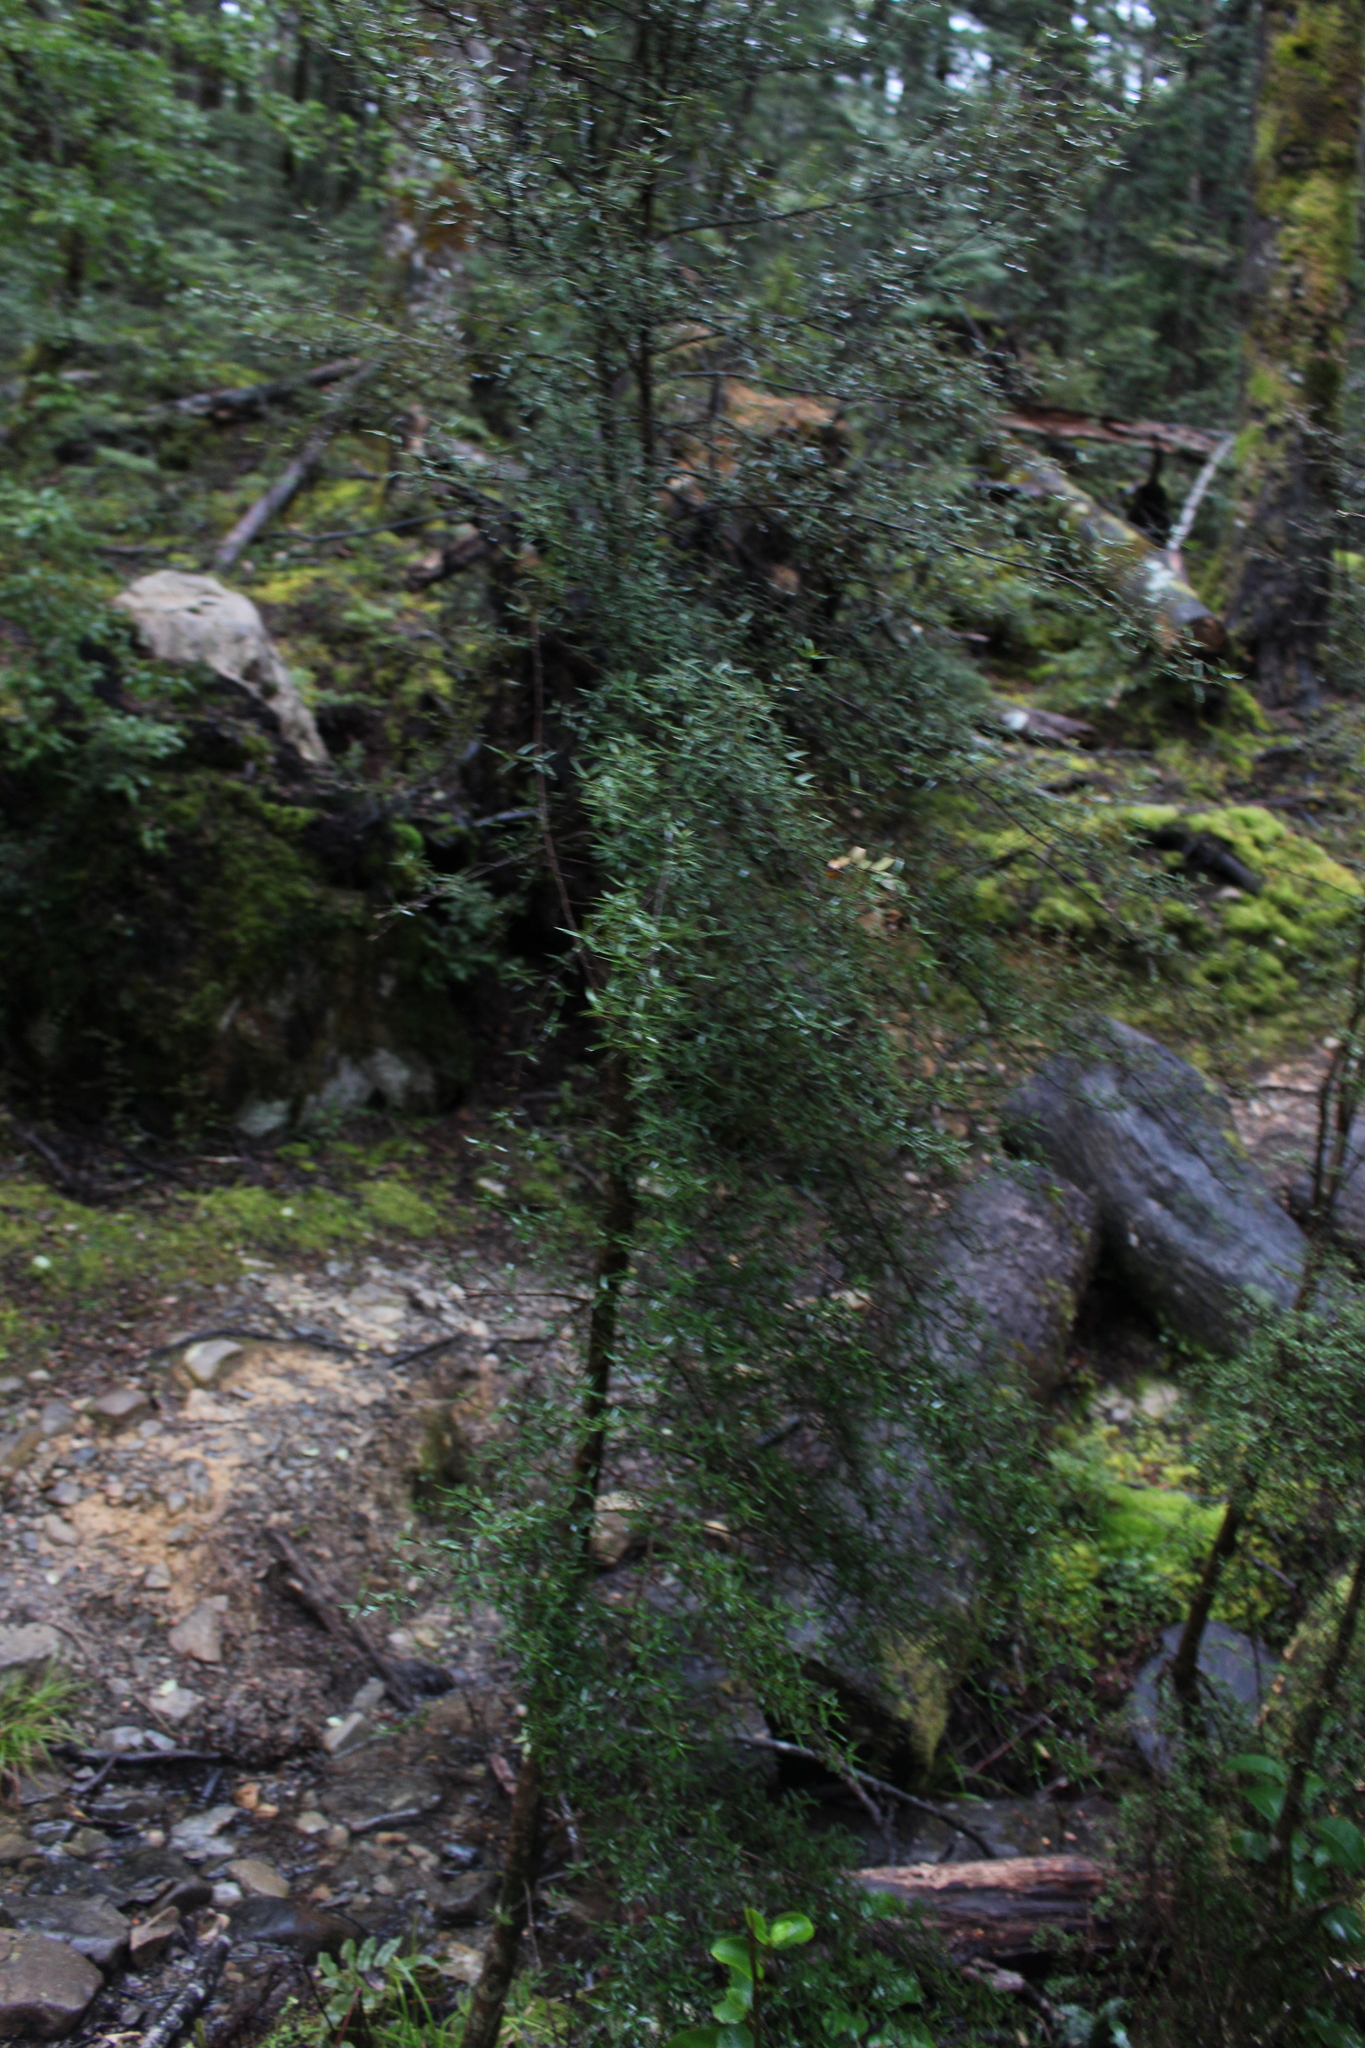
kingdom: Plantae
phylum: Tracheophyta
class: Magnoliopsida
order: Gentianales
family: Rubiaceae
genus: Coprosma
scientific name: Coprosma linariifolia
